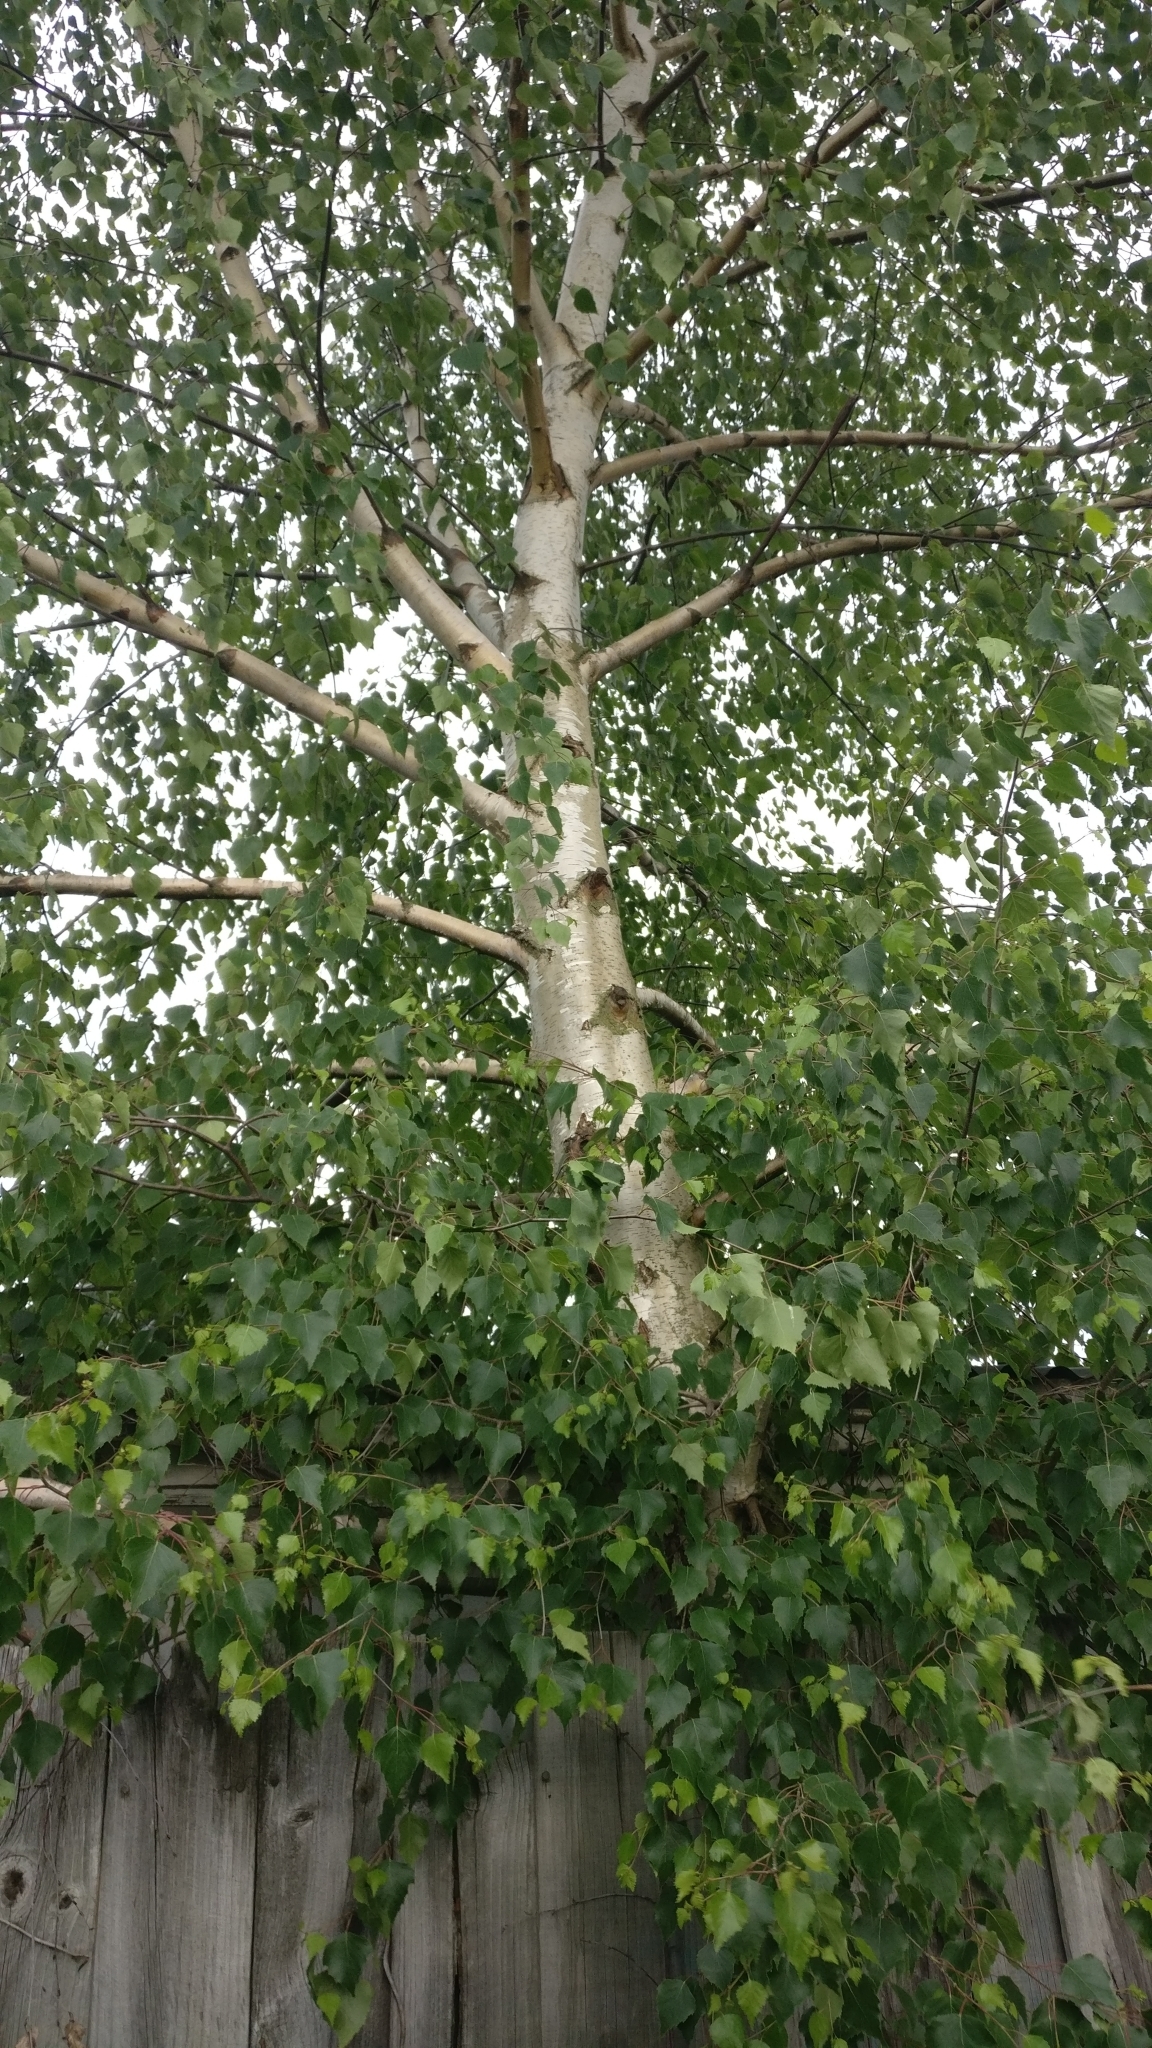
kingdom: Plantae
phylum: Tracheophyta
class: Magnoliopsida
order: Fagales
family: Betulaceae
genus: Betula
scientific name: Betula pendula
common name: Silver birch
